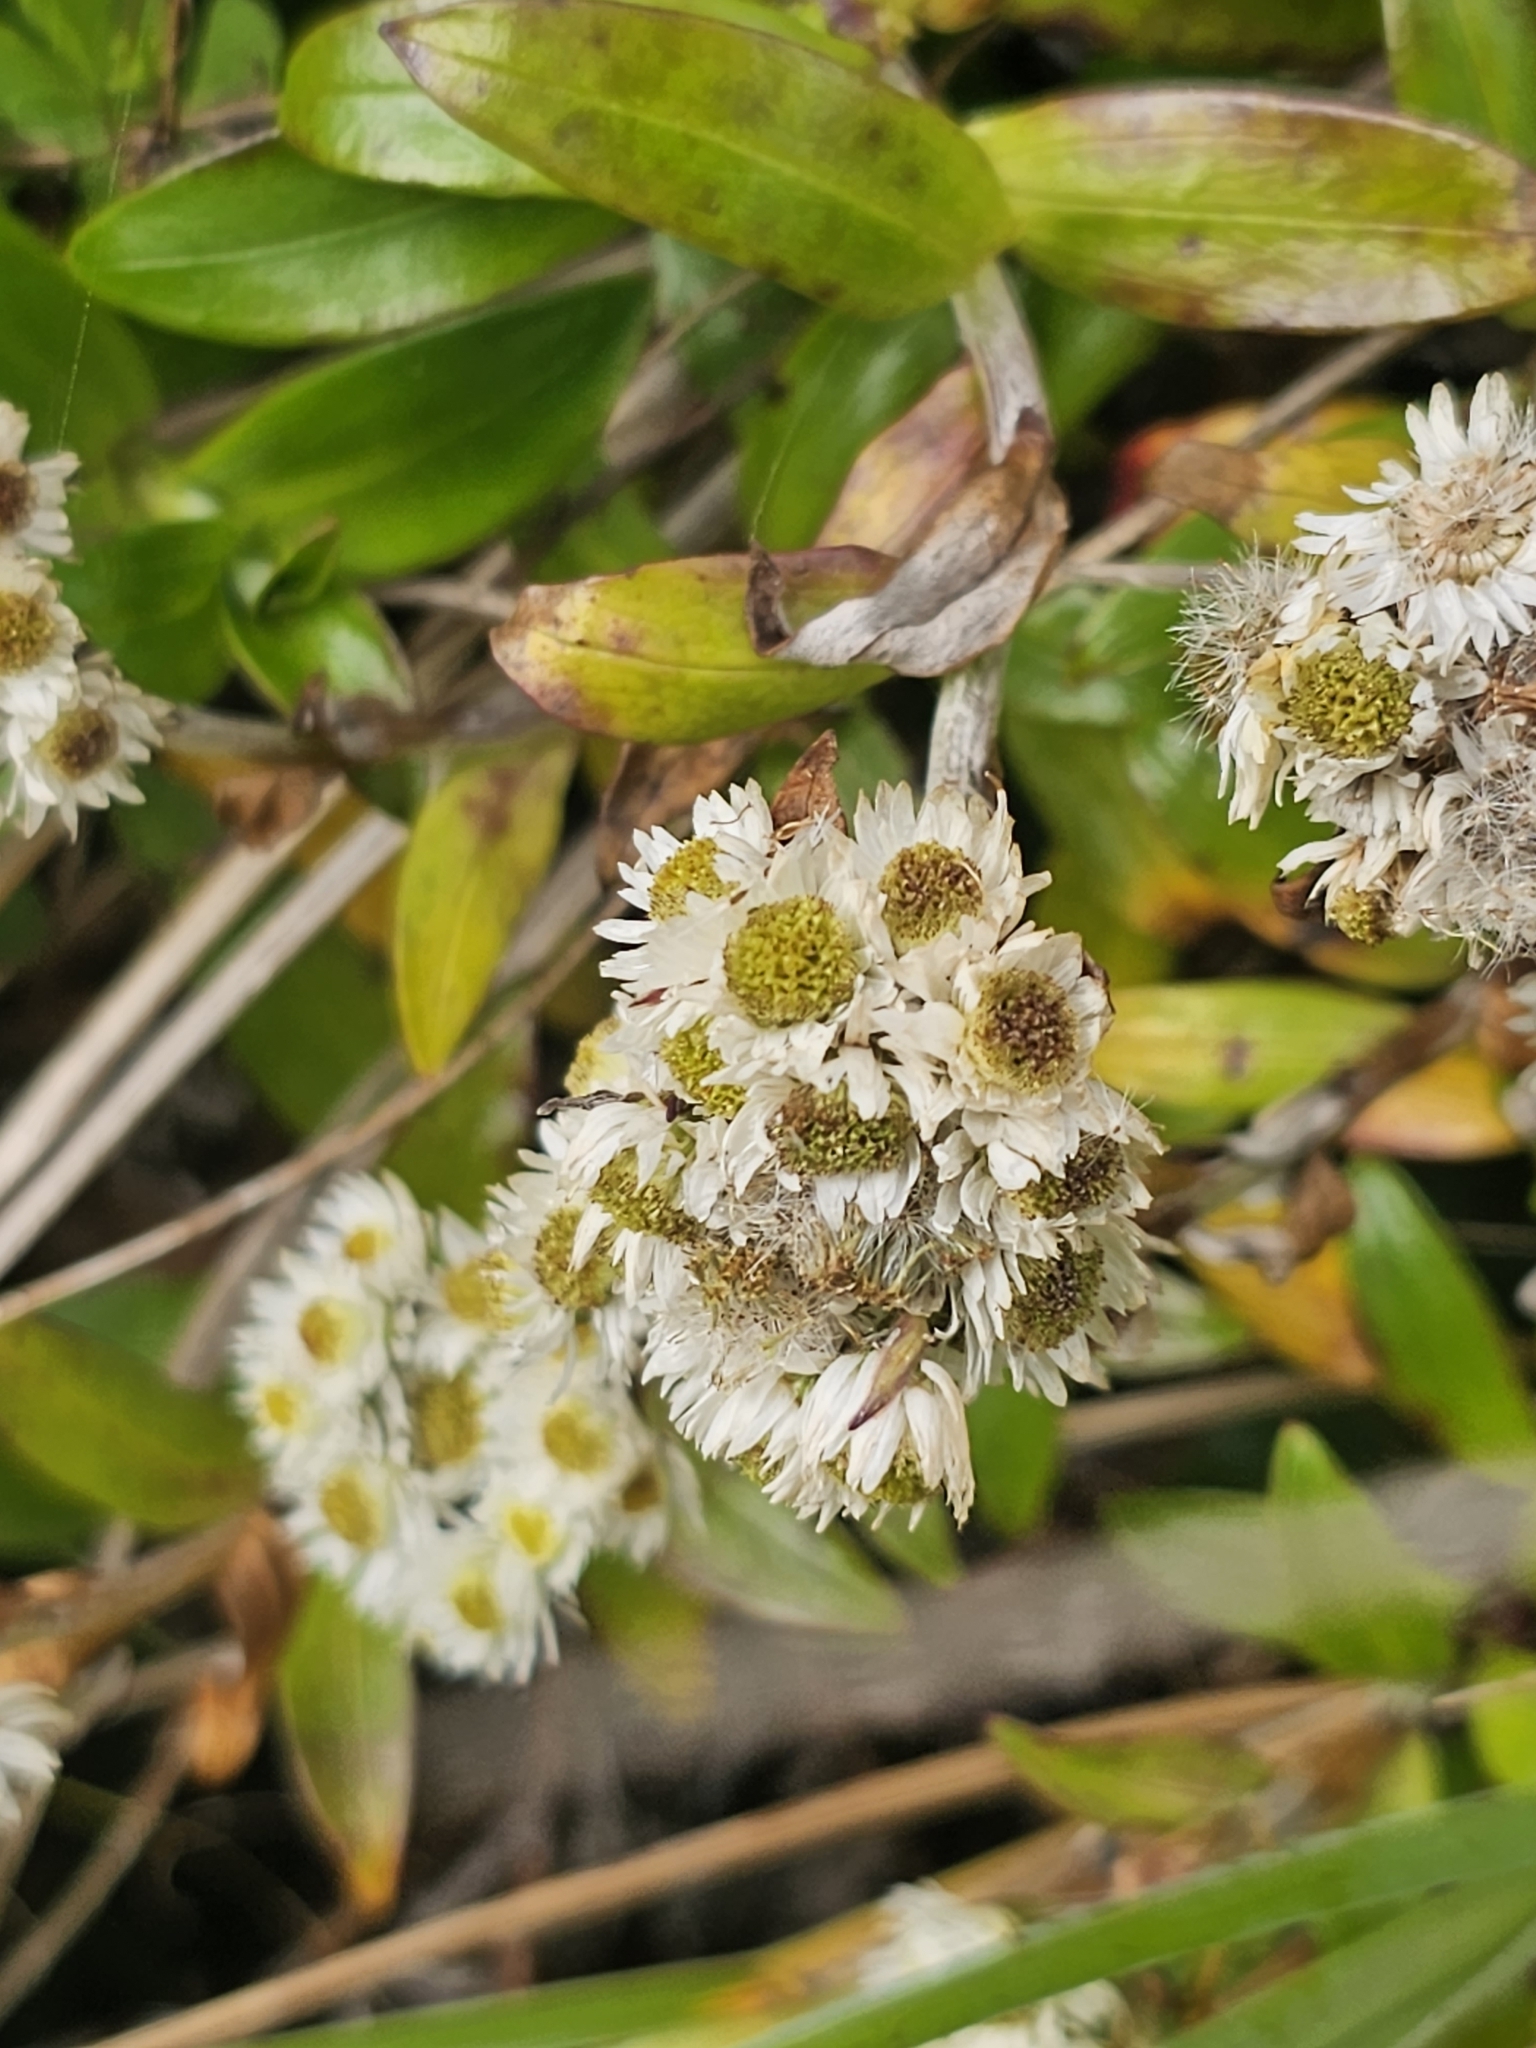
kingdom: Plantae
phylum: Tracheophyta
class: Magnoliopsida
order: Asterales
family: Asteraceae
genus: Anaphalioides
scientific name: Anaphalioides trinervis
